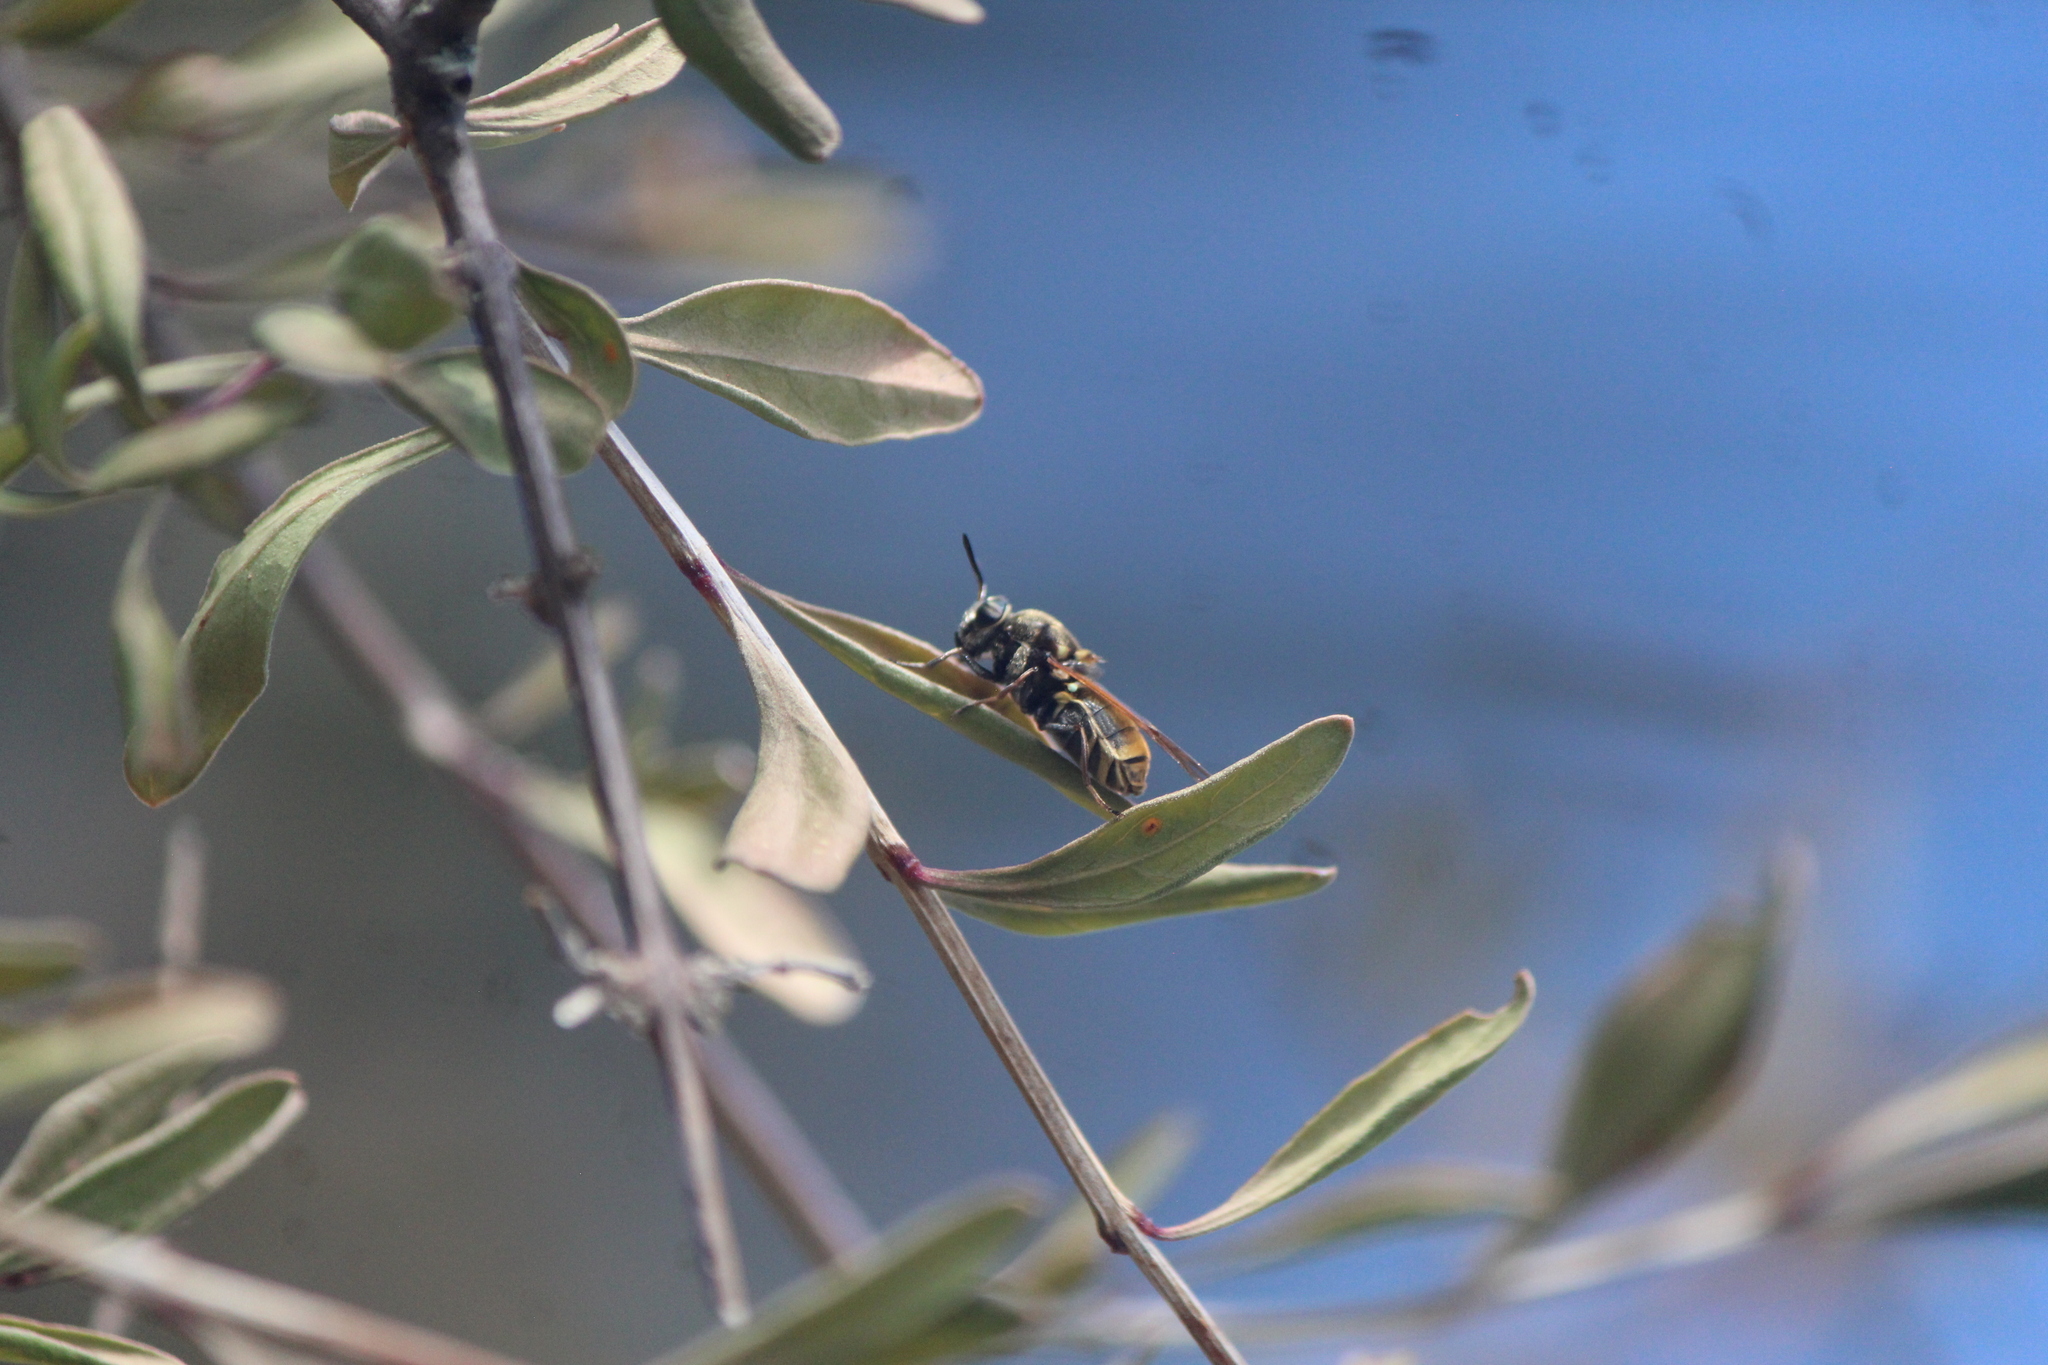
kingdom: Animalia
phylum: Arthropoda
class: Insecta
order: Diptera
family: Stratiomyidae
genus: Hoplitimyia
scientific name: Hoplitimyia mutabilis
